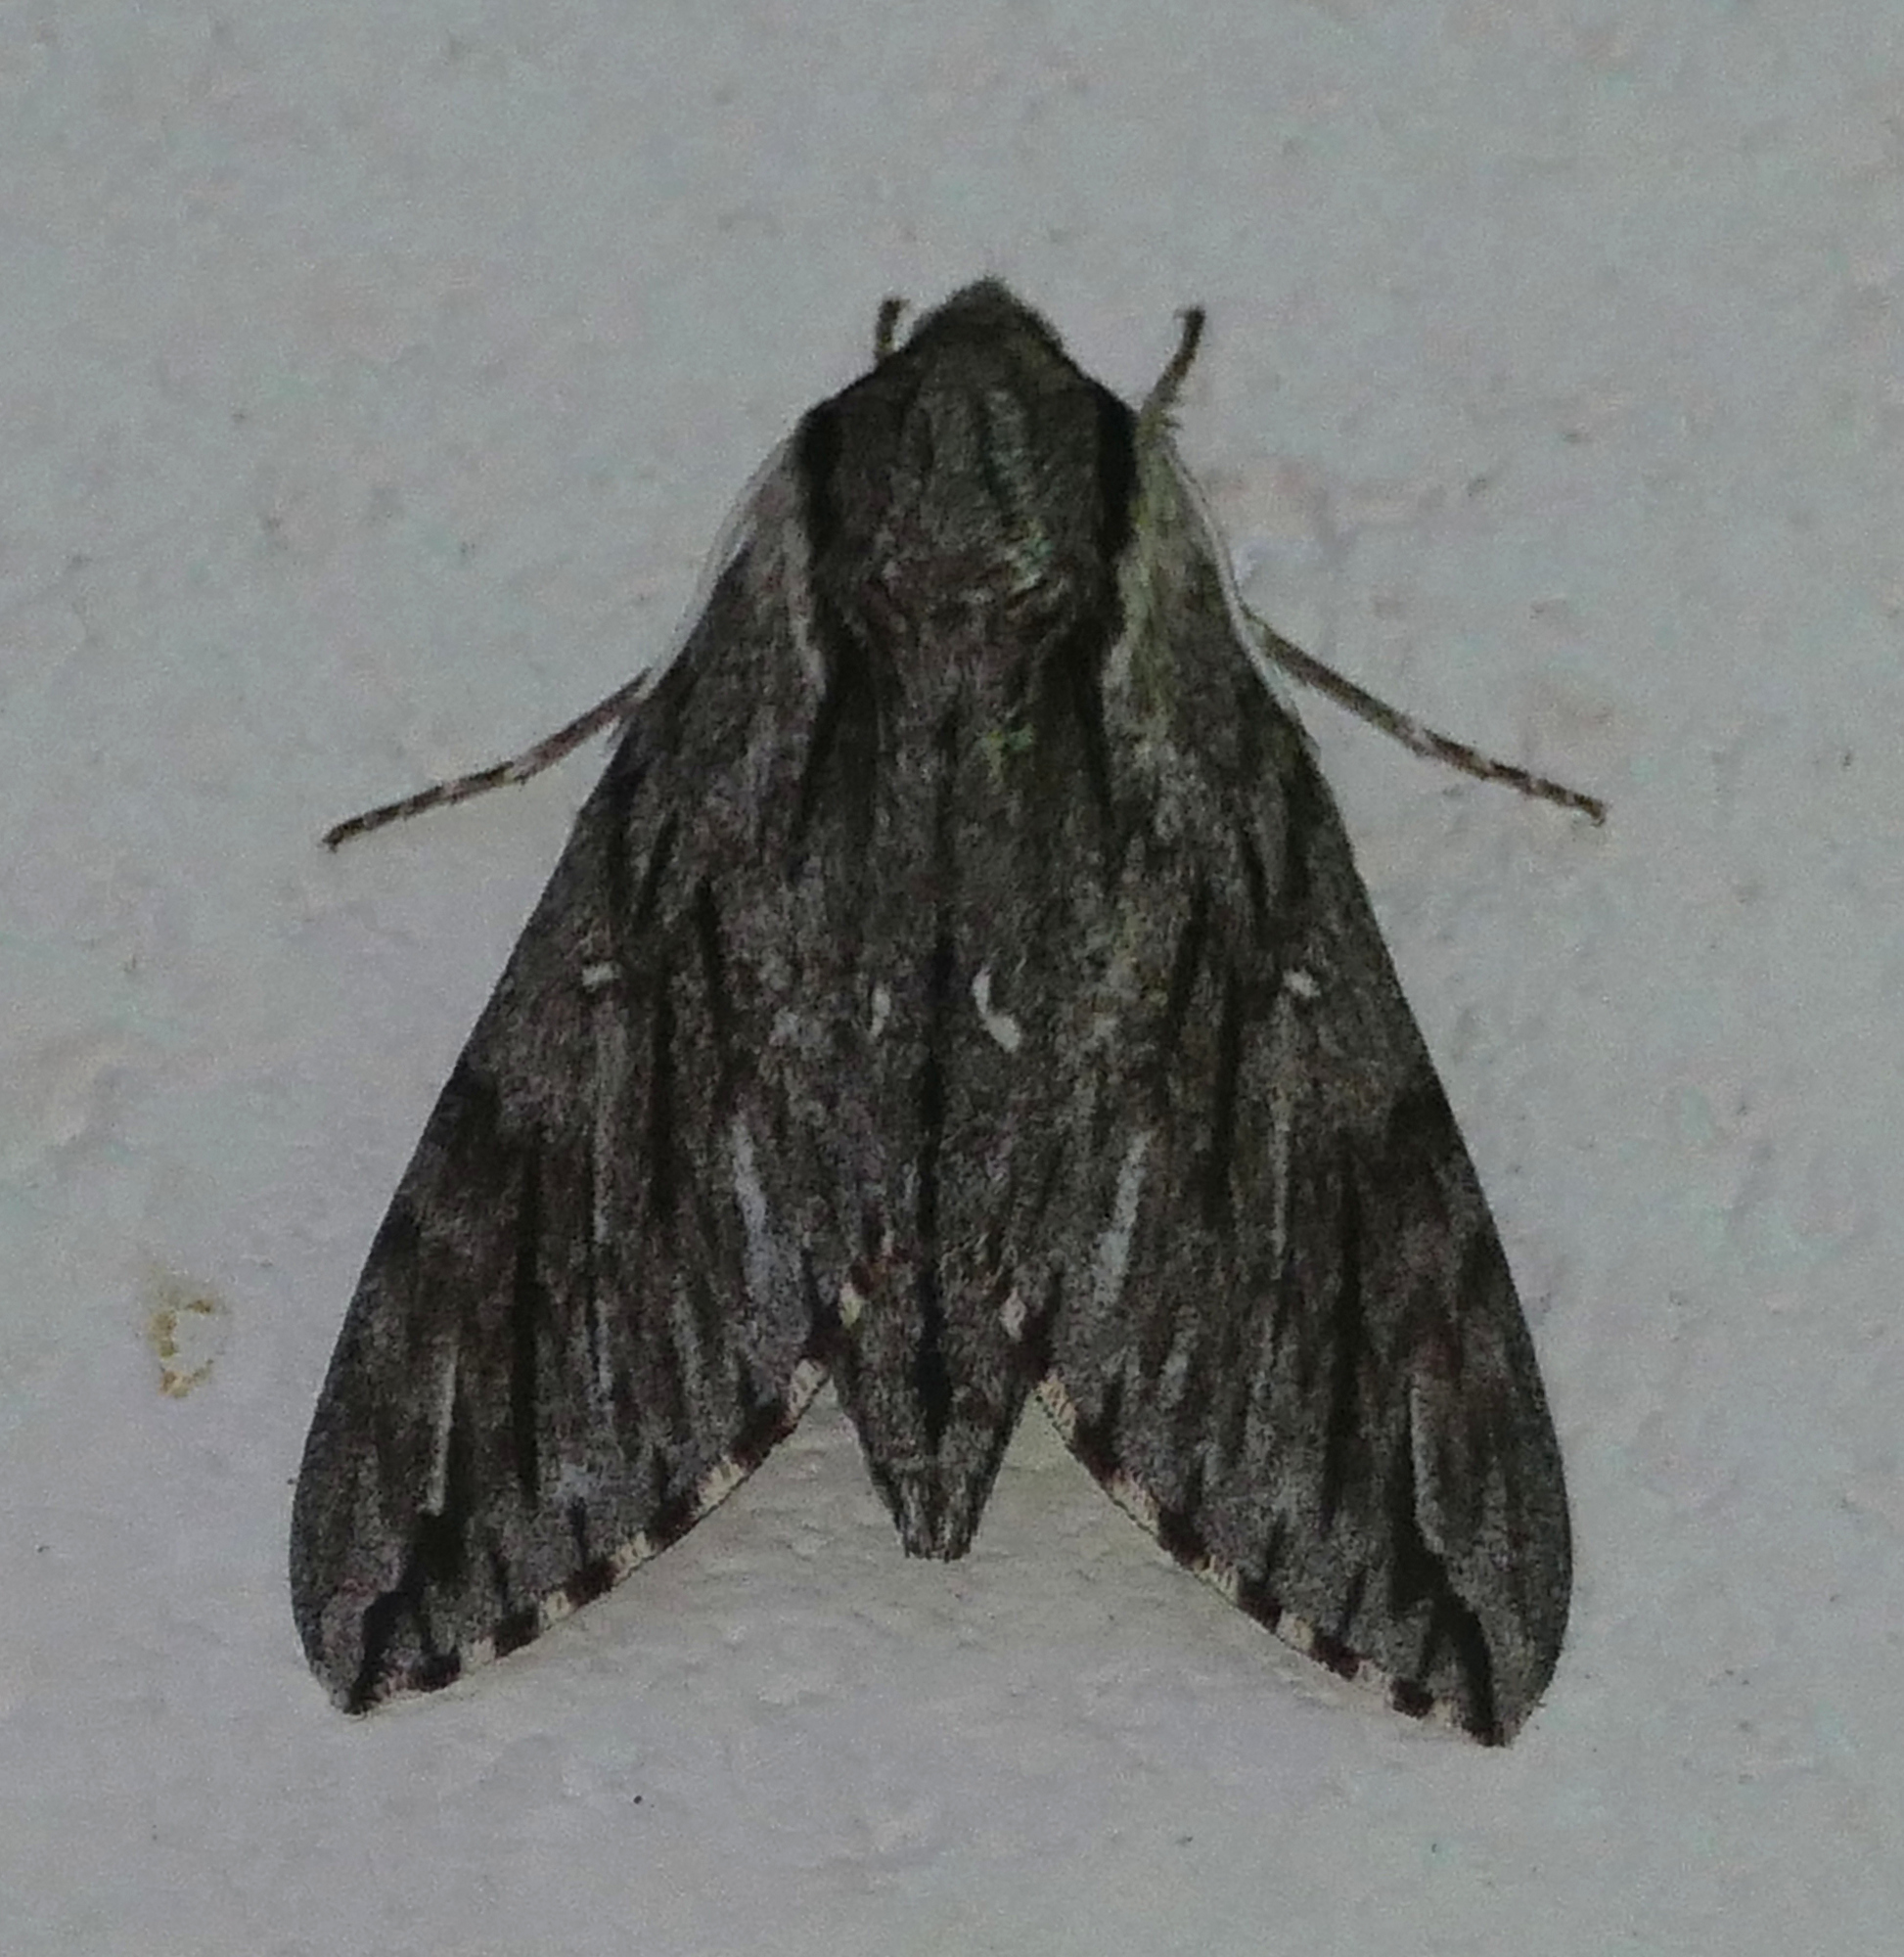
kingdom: Animalia
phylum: Arthropoda
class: Insecta
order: Lepidoptera
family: Sphingidae
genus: Paratrea
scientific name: Paratrea plebeja
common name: Plebian sphinx
